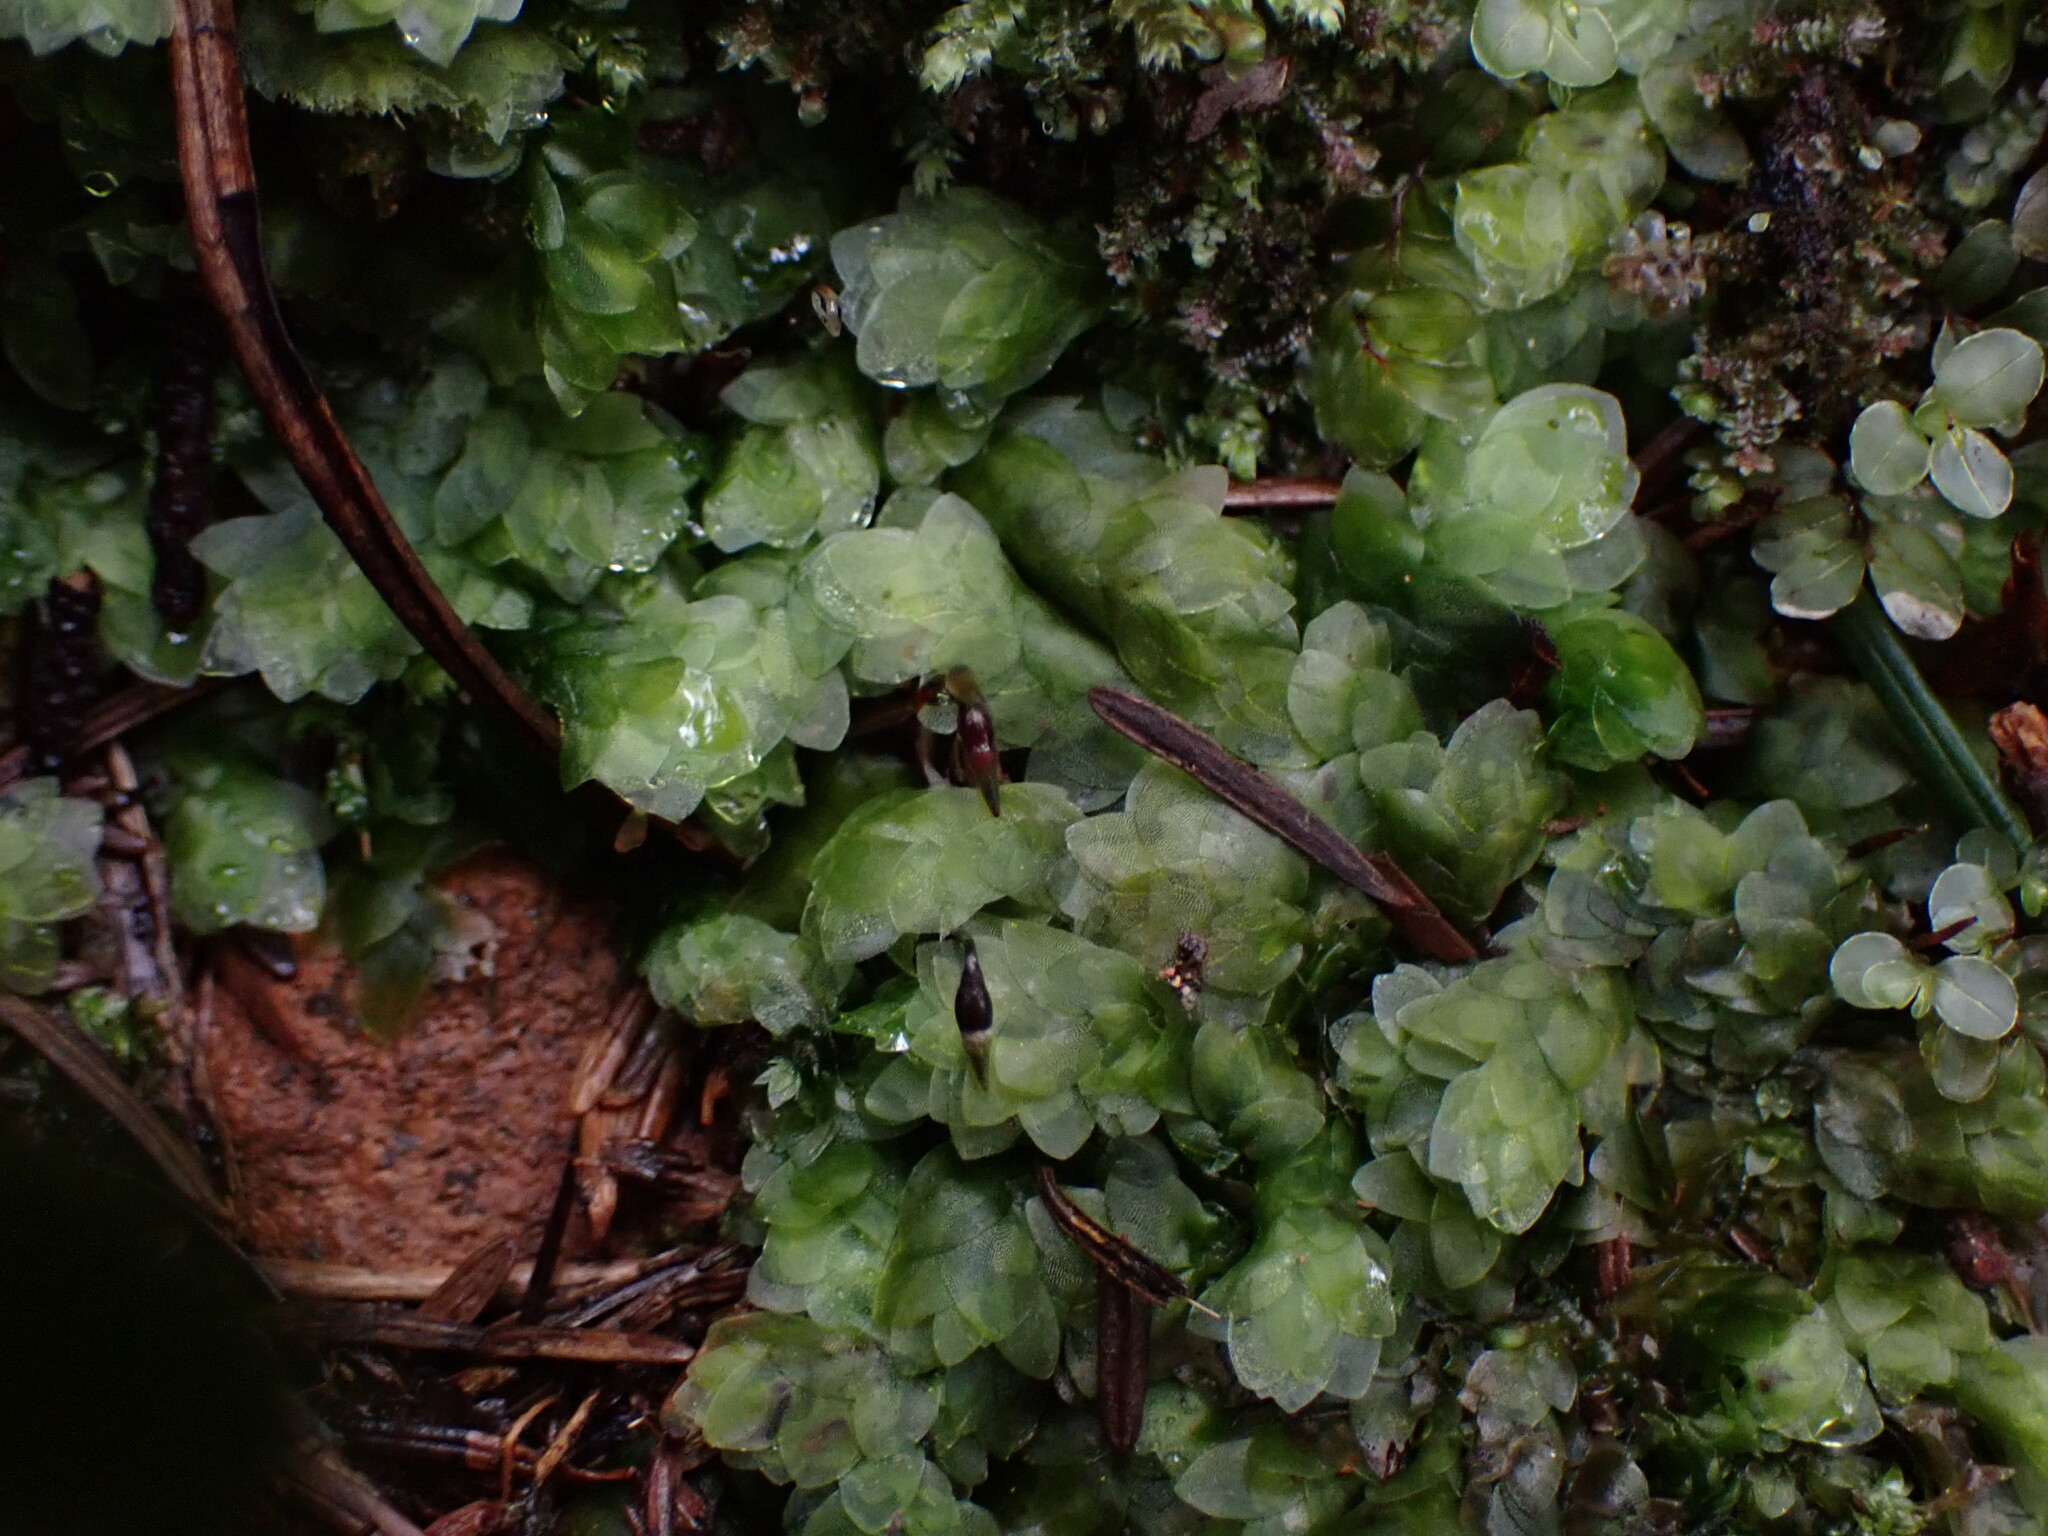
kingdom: Plantae
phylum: Bryophyta
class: Bryopsida
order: Hookeriales
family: Hookeriaceae
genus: Hookeria
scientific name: Hookeria lucens
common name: Shining hookeria
